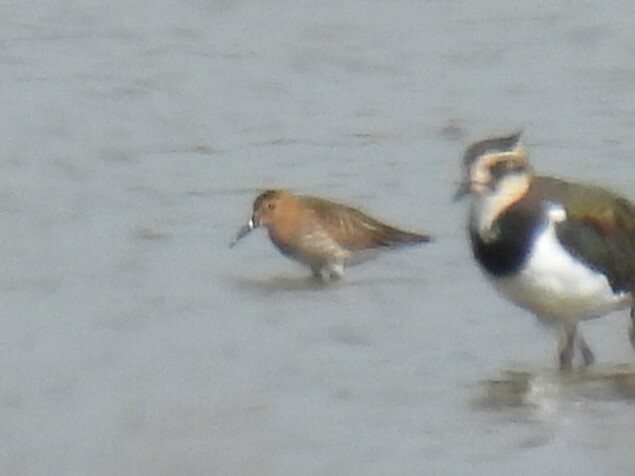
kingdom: Animalia
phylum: Chordata
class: Aves
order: Charadriiformes
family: Scolopacidae
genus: Calidris
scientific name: Calidris alpina
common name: Dunlin
